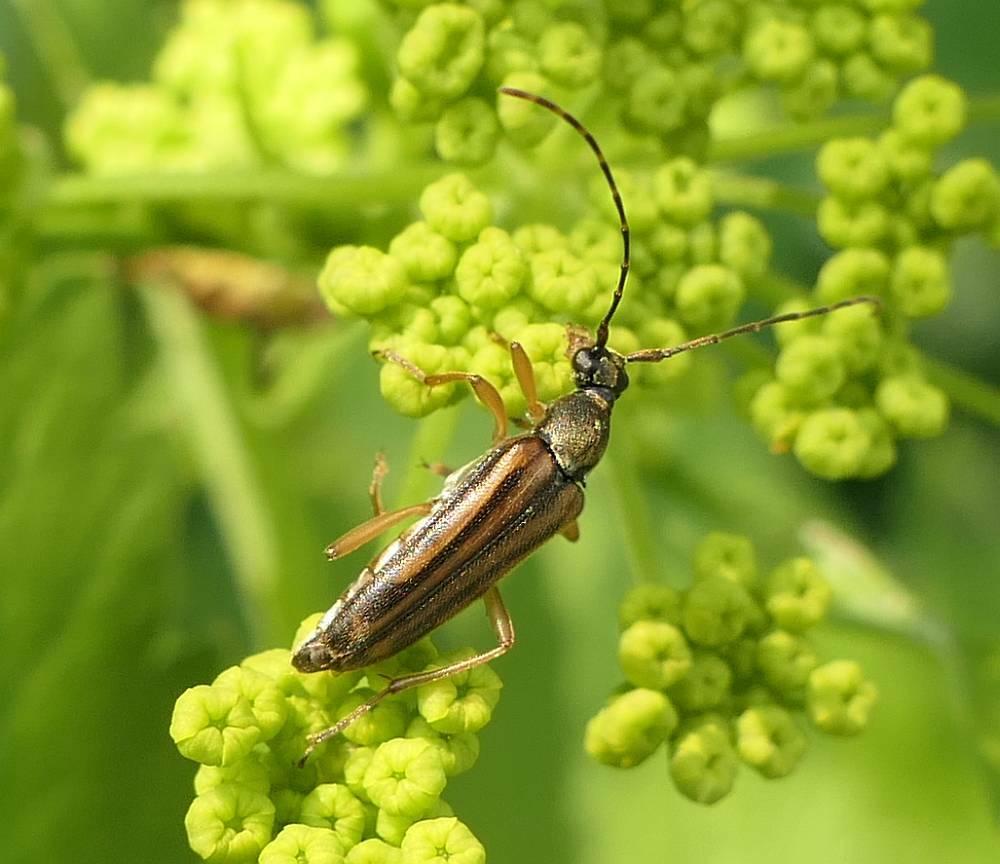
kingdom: Animalia
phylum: Arthropoda
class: Insecta
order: Coleoptera
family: Cerambycidae
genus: Analeptura
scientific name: Analeptura lineola
